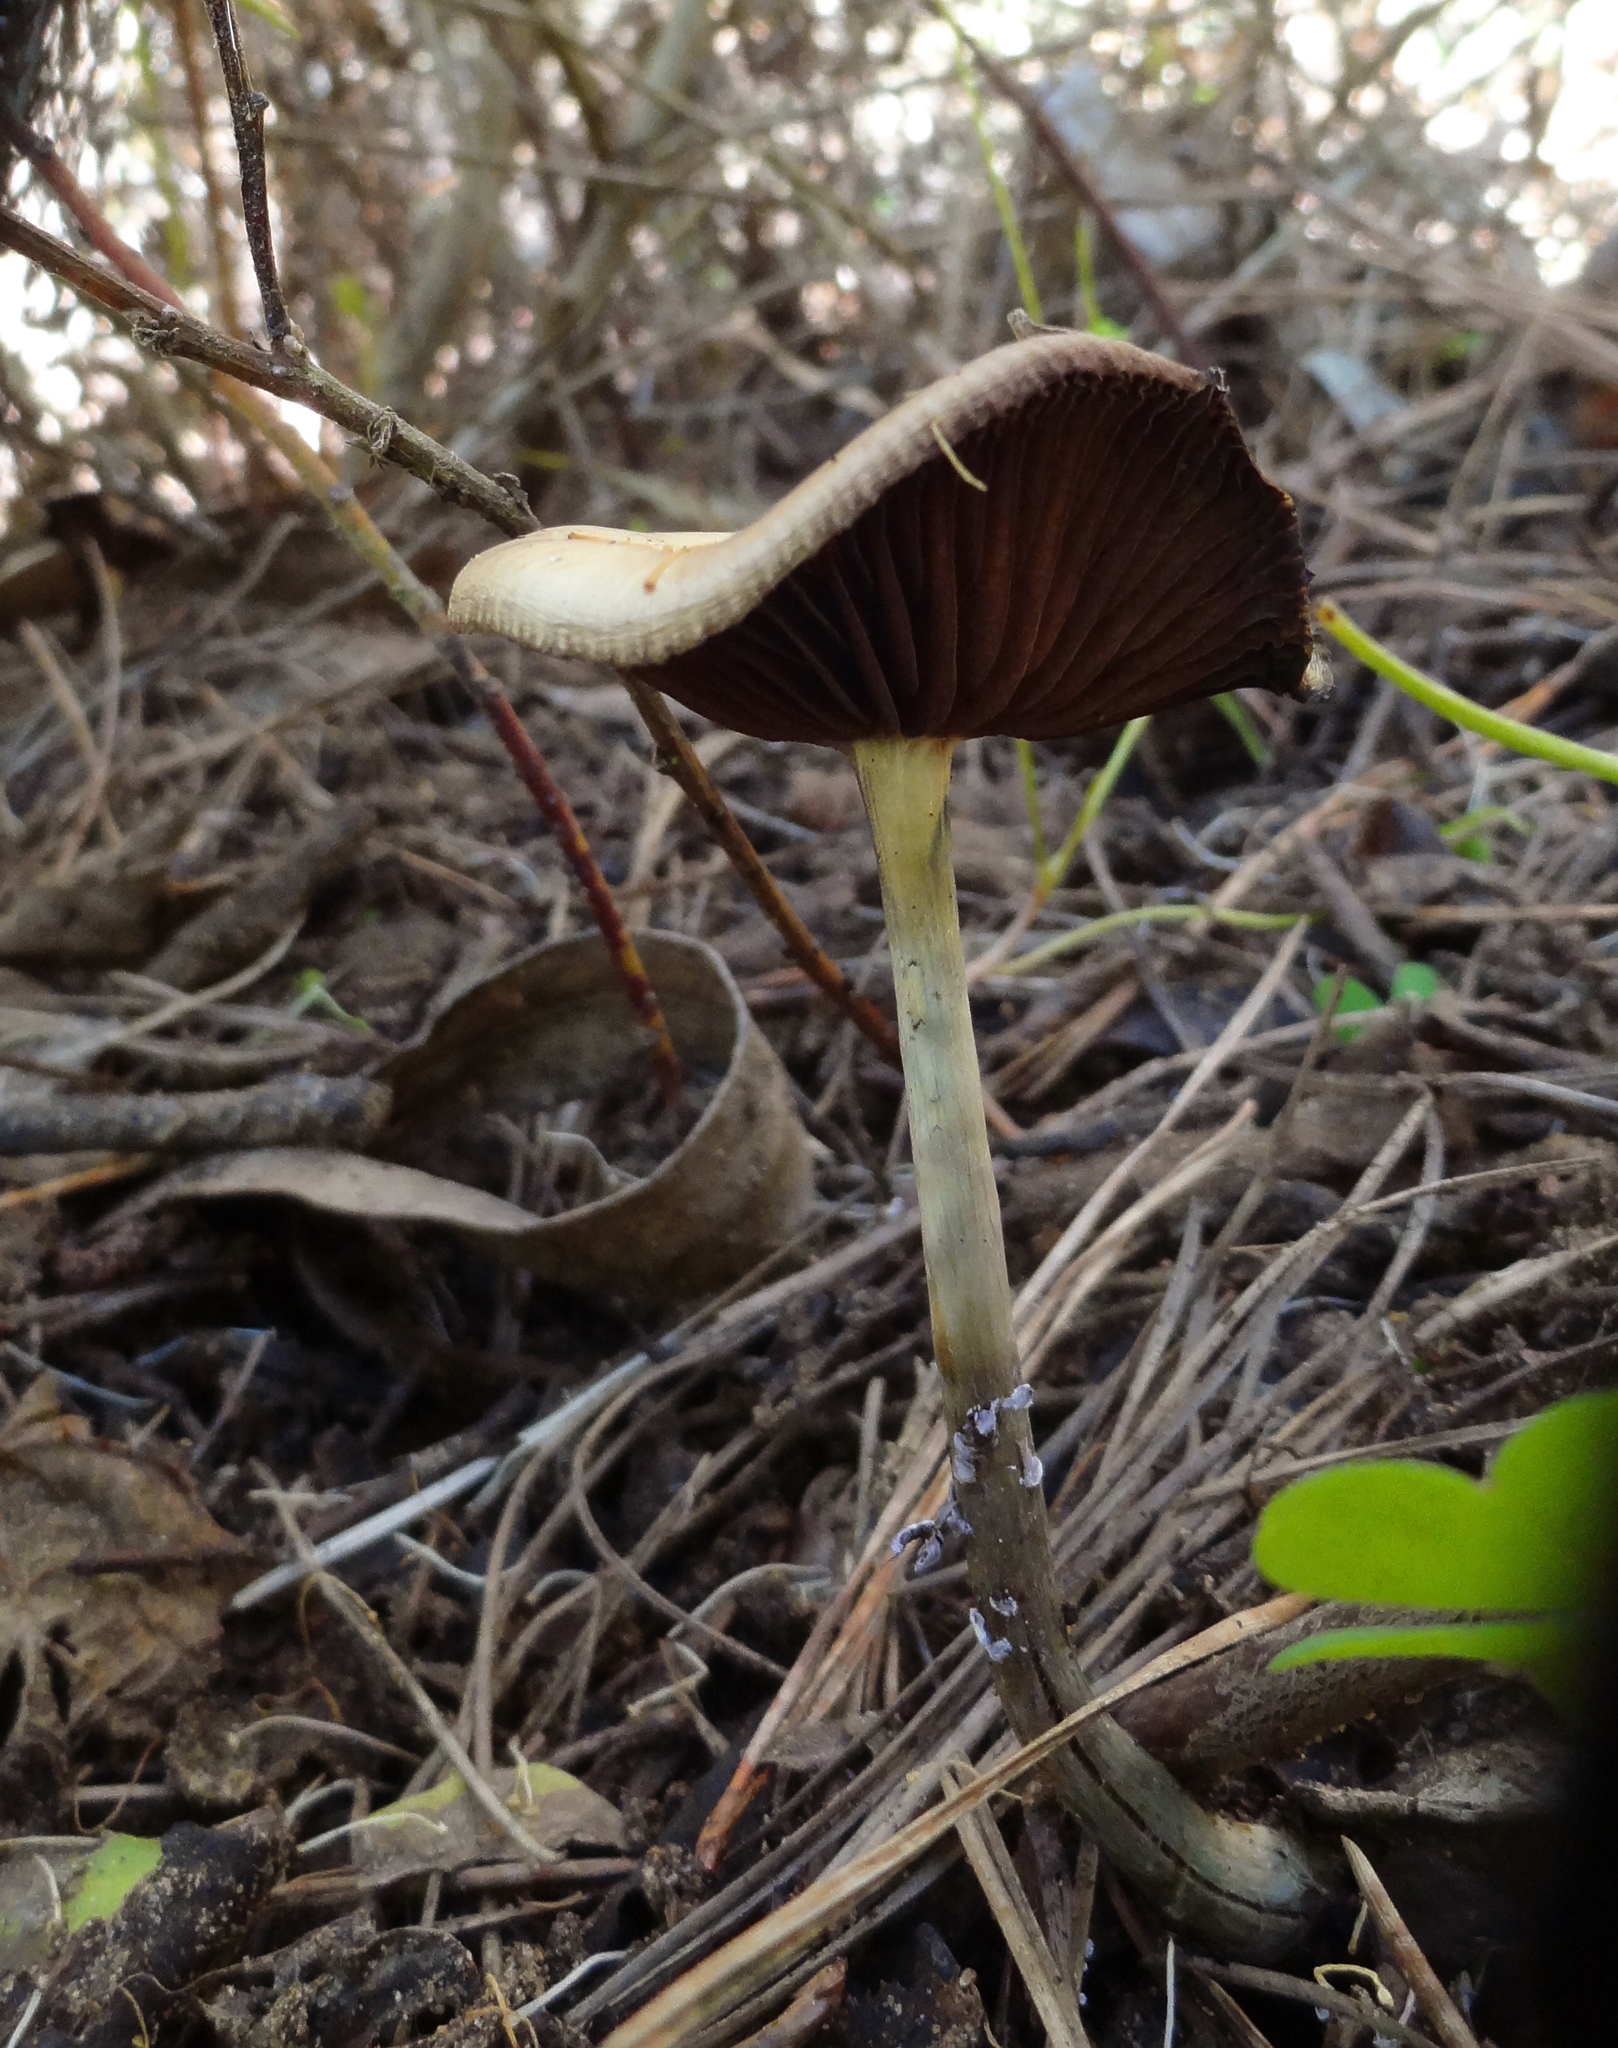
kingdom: Fungi
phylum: Basidiomycota
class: Agaricomycetes
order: Agaricales
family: Hymenogastraceae
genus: Psilocybe
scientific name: Psilocybe cyanescens
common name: Blueleg brownie
